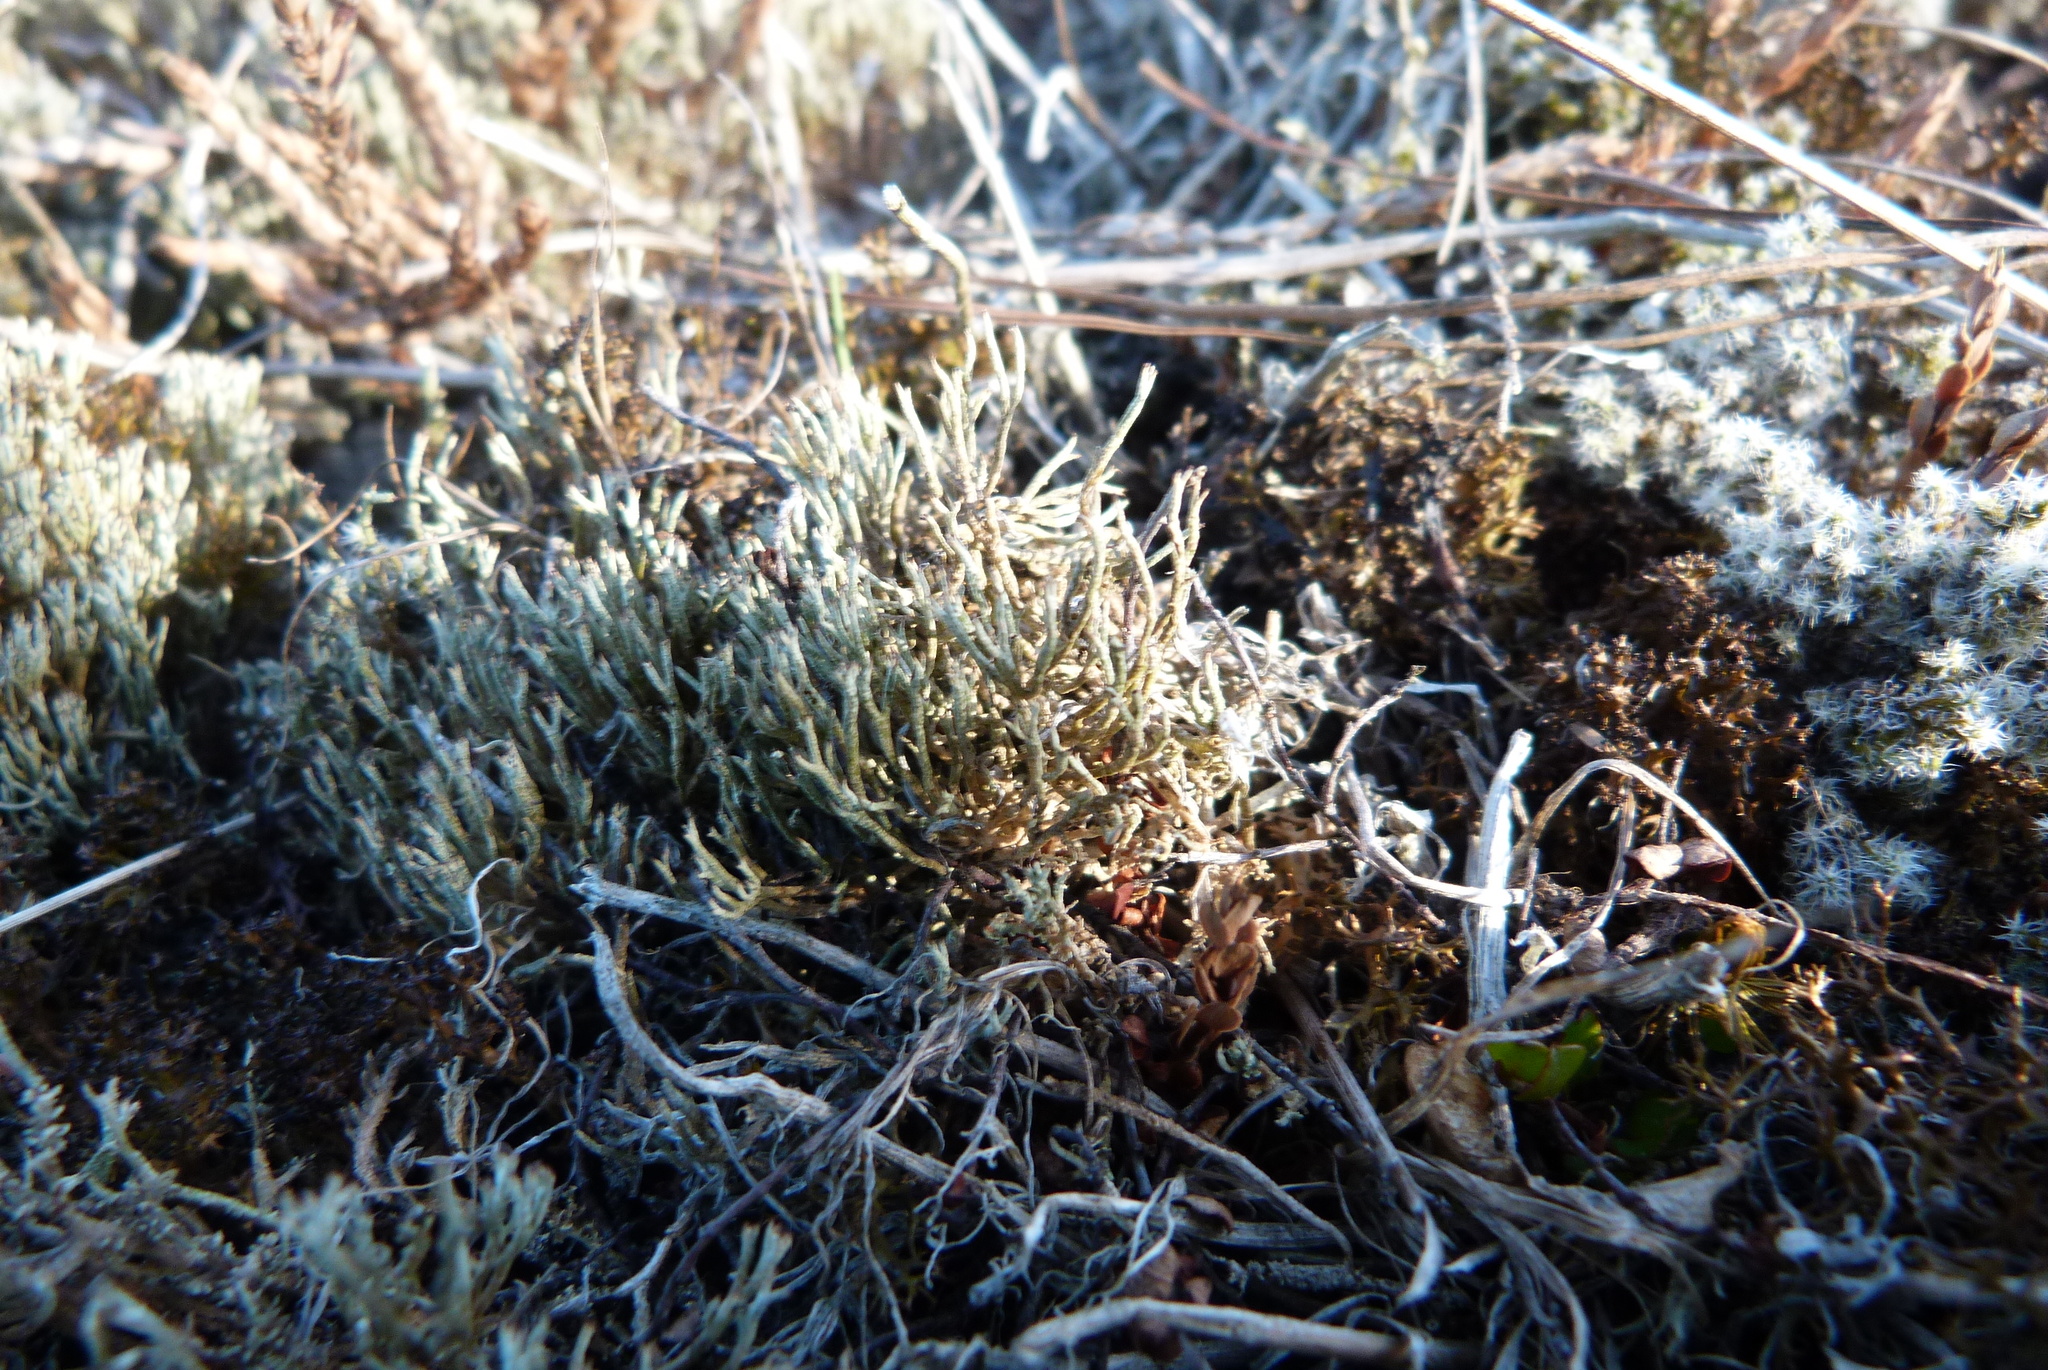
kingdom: Fungi
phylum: Ascomycota
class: Lecanoromycetes
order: Lecanorales
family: Cladoniaceae
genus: Cladonia
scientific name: Cladonia capitellata
